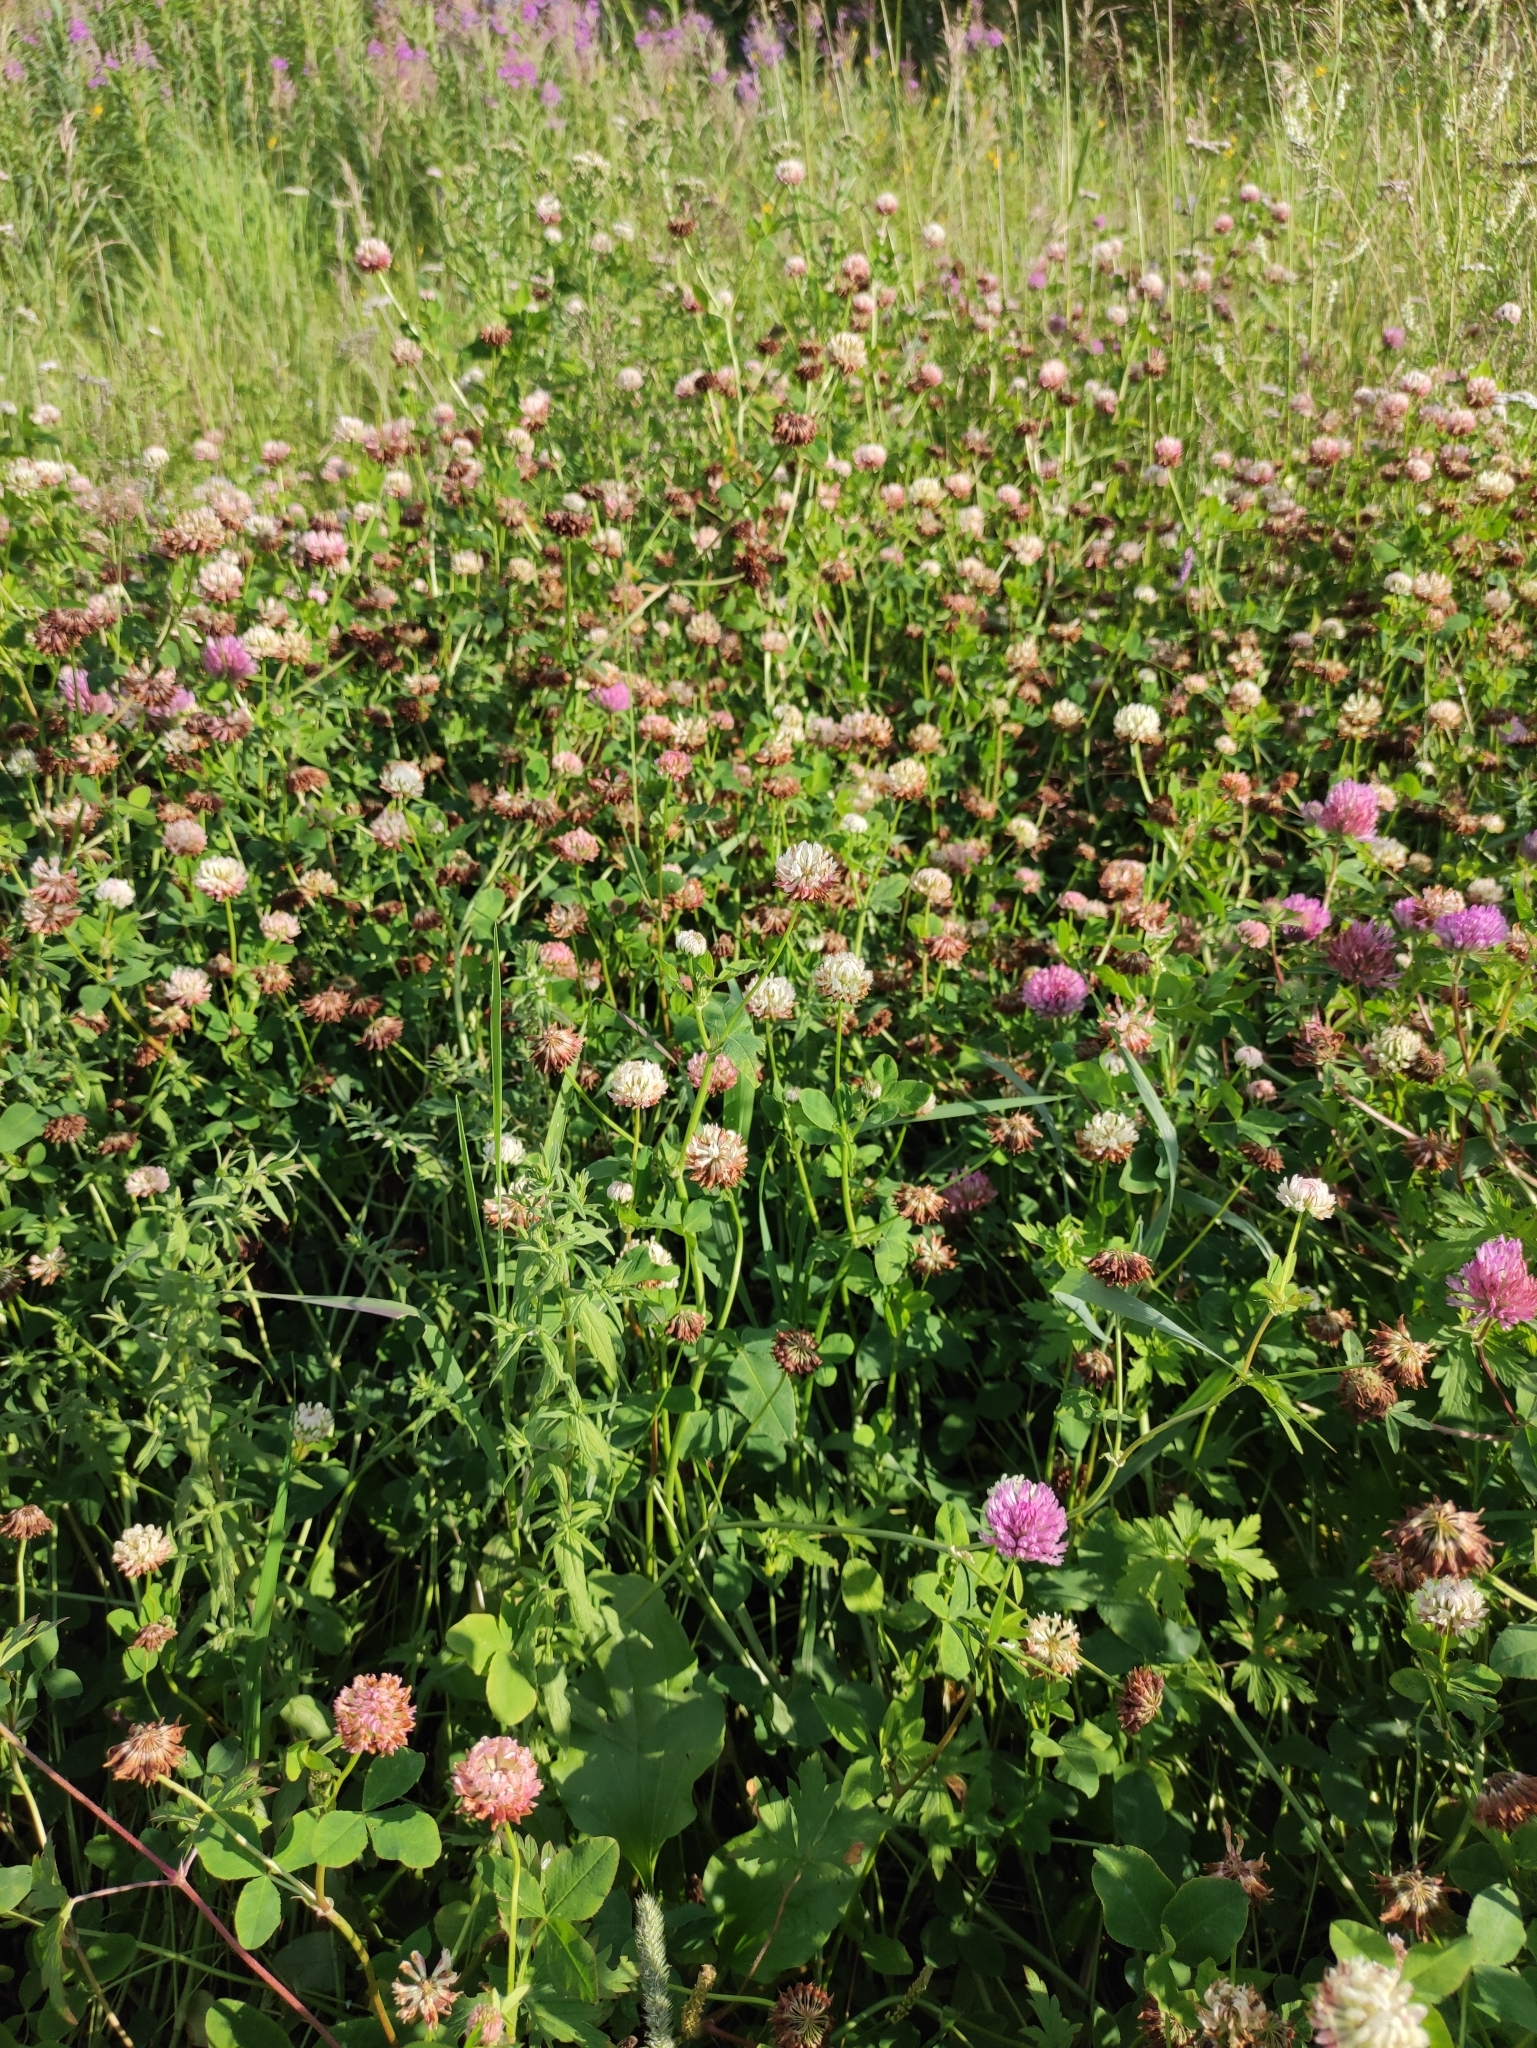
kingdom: Plantae
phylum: Tracheophyta
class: Magnoliopsida
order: Fabales
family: Fabaceae
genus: Trifolium
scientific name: Trifolium hybridum
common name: Alsike clover
